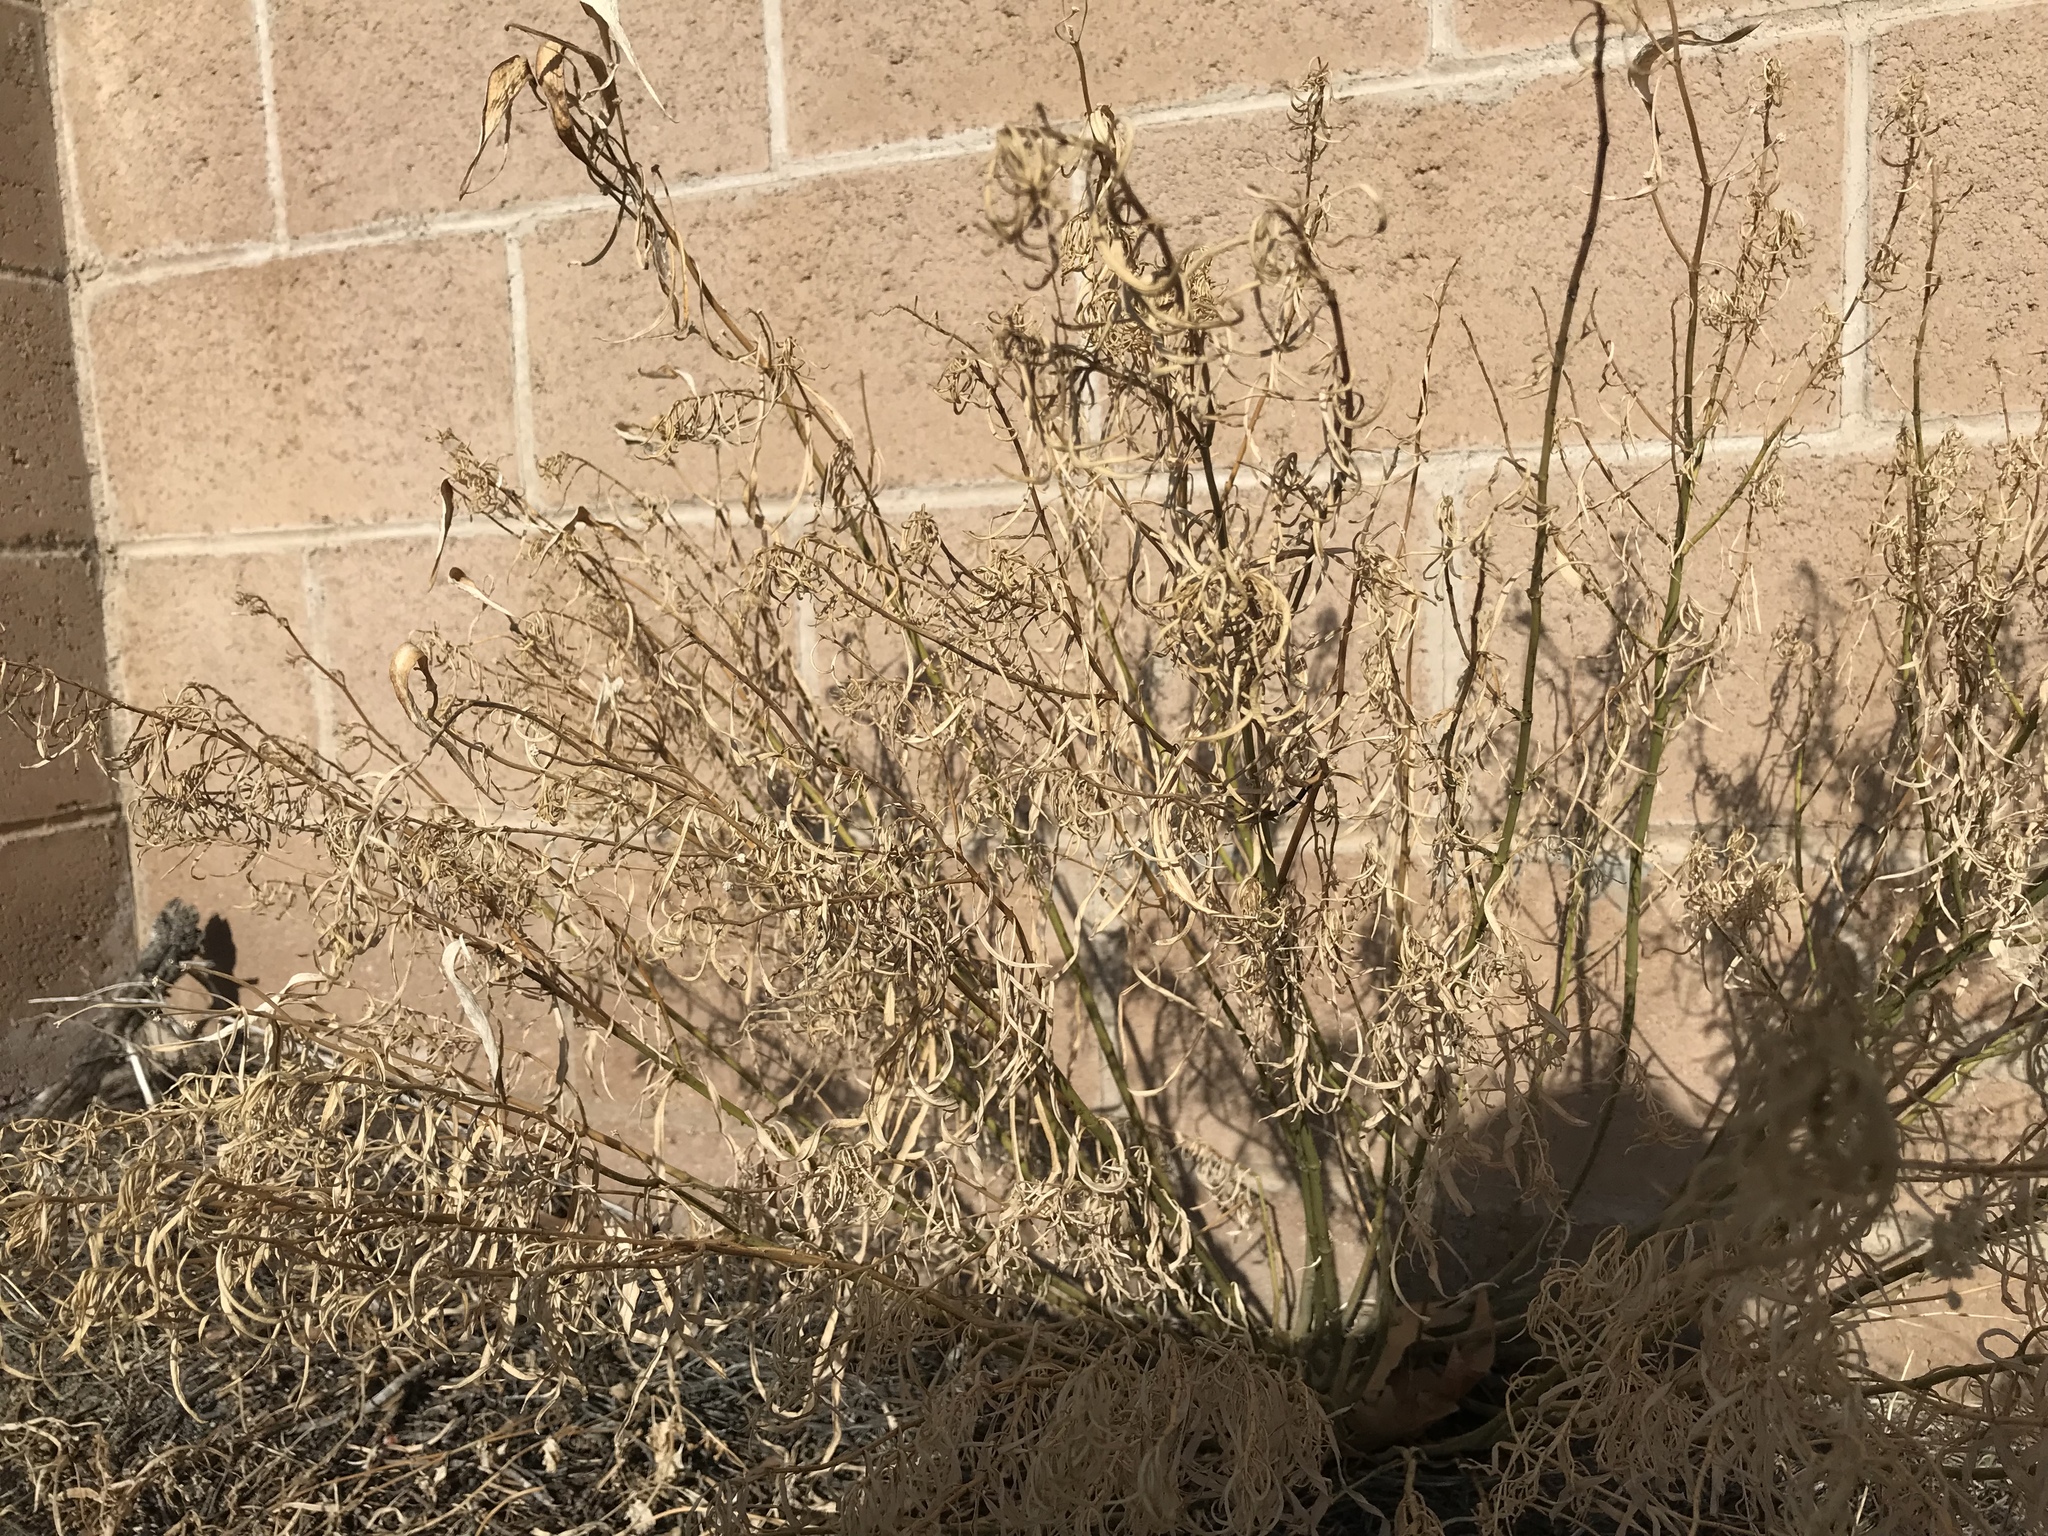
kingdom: Plantae
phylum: Tracheophyta
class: Magnoliopsida
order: Gentianales
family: Apocynaceae
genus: Asclepias
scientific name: Asclepias fascicularis
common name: Mexican milkweed
